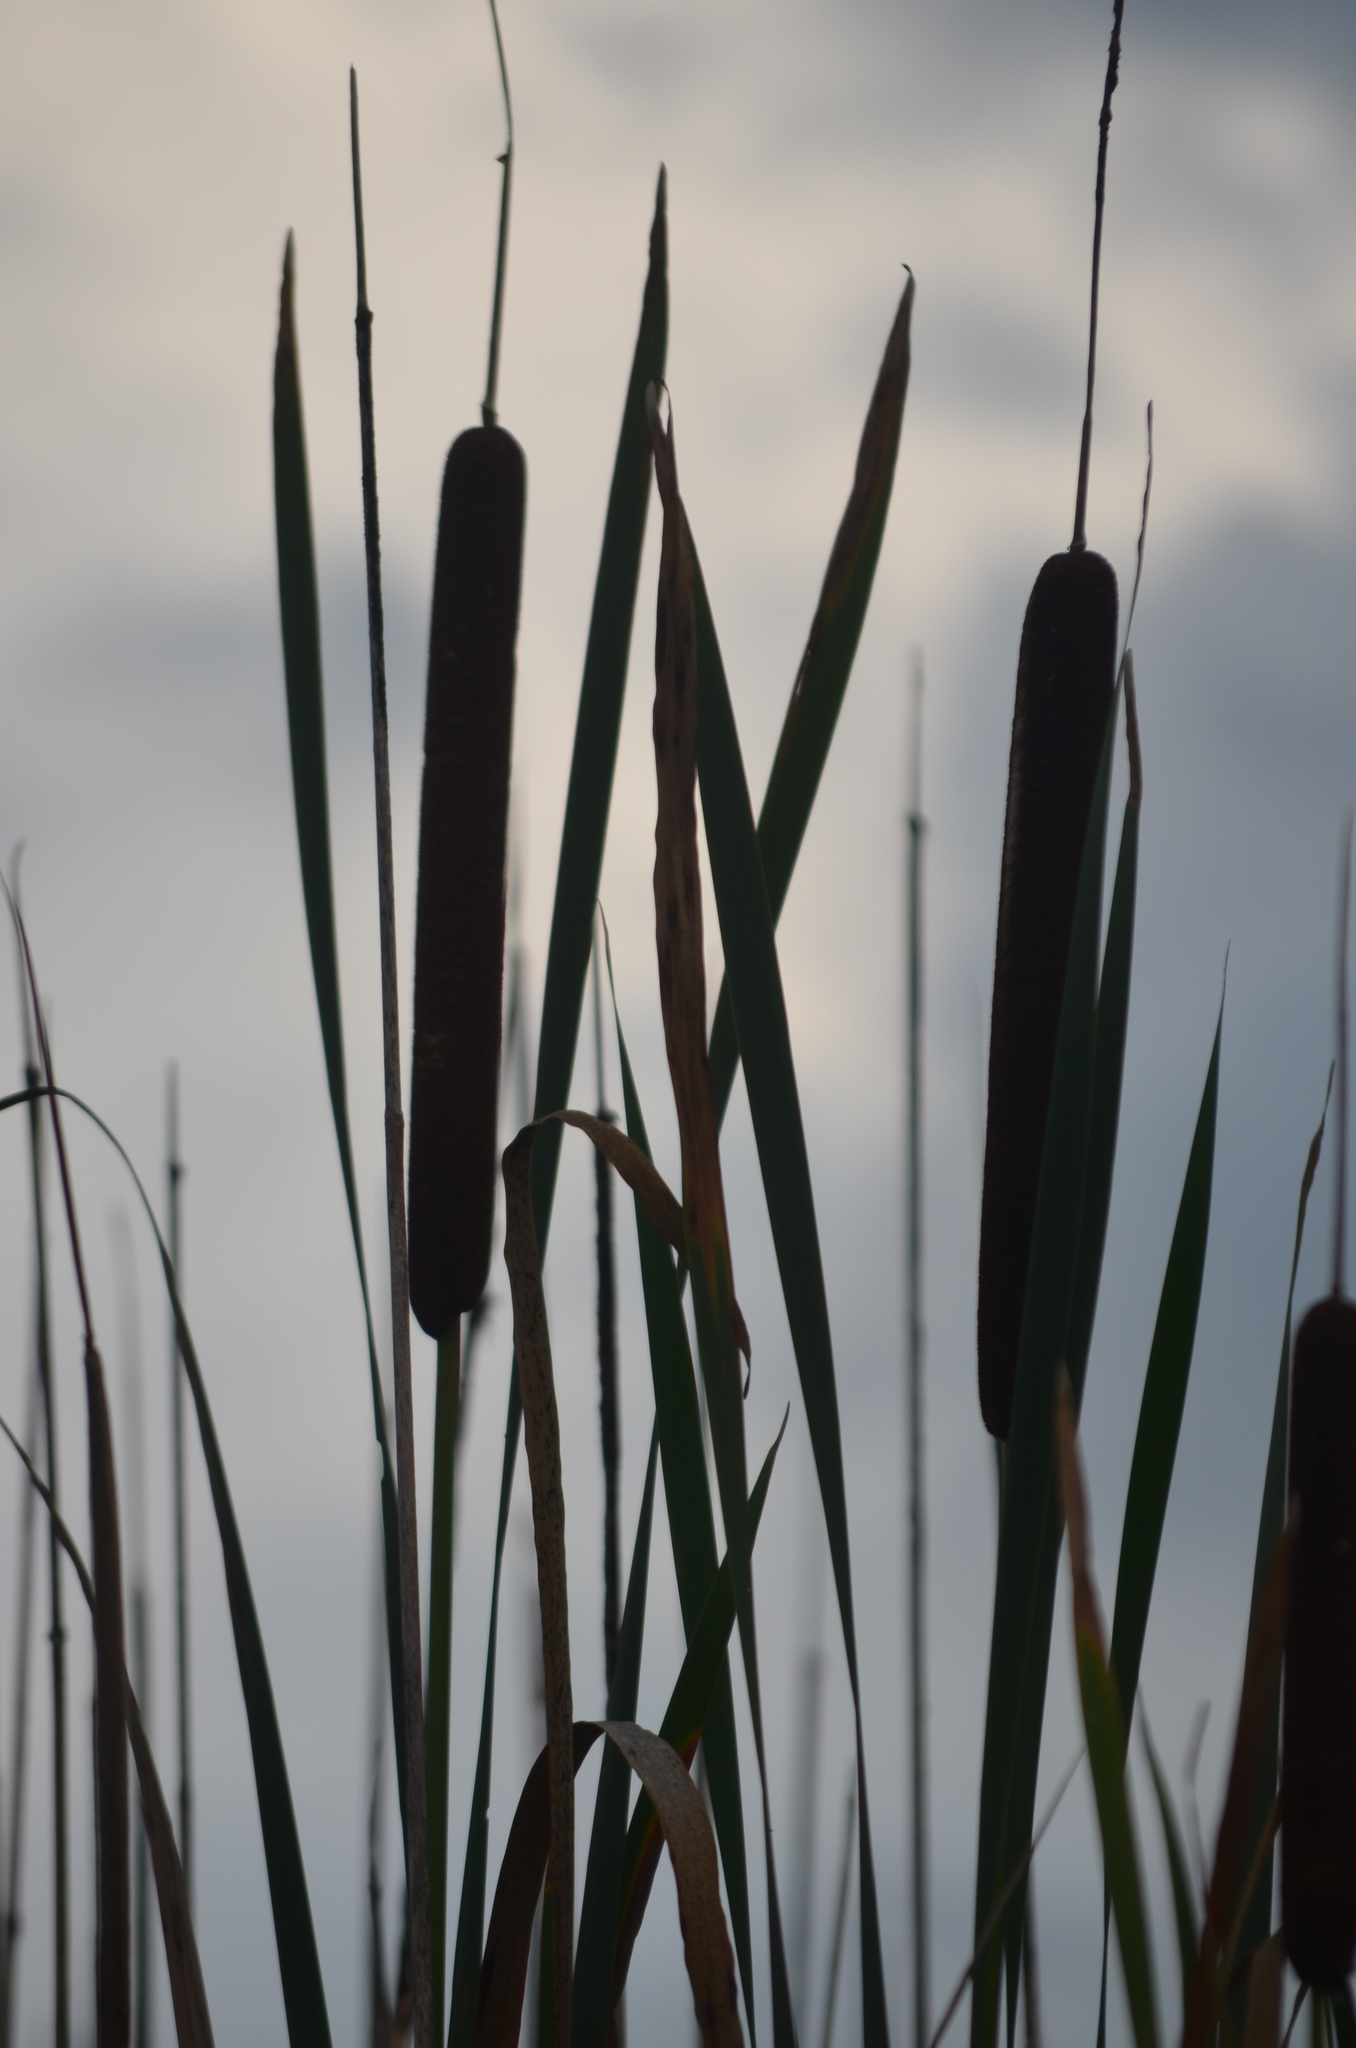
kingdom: Plantae
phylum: Tracheophyta
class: Liliopsida
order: Poales
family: Typhaceae
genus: Typha
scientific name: Typha latifolia
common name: Broadleaf cattail
